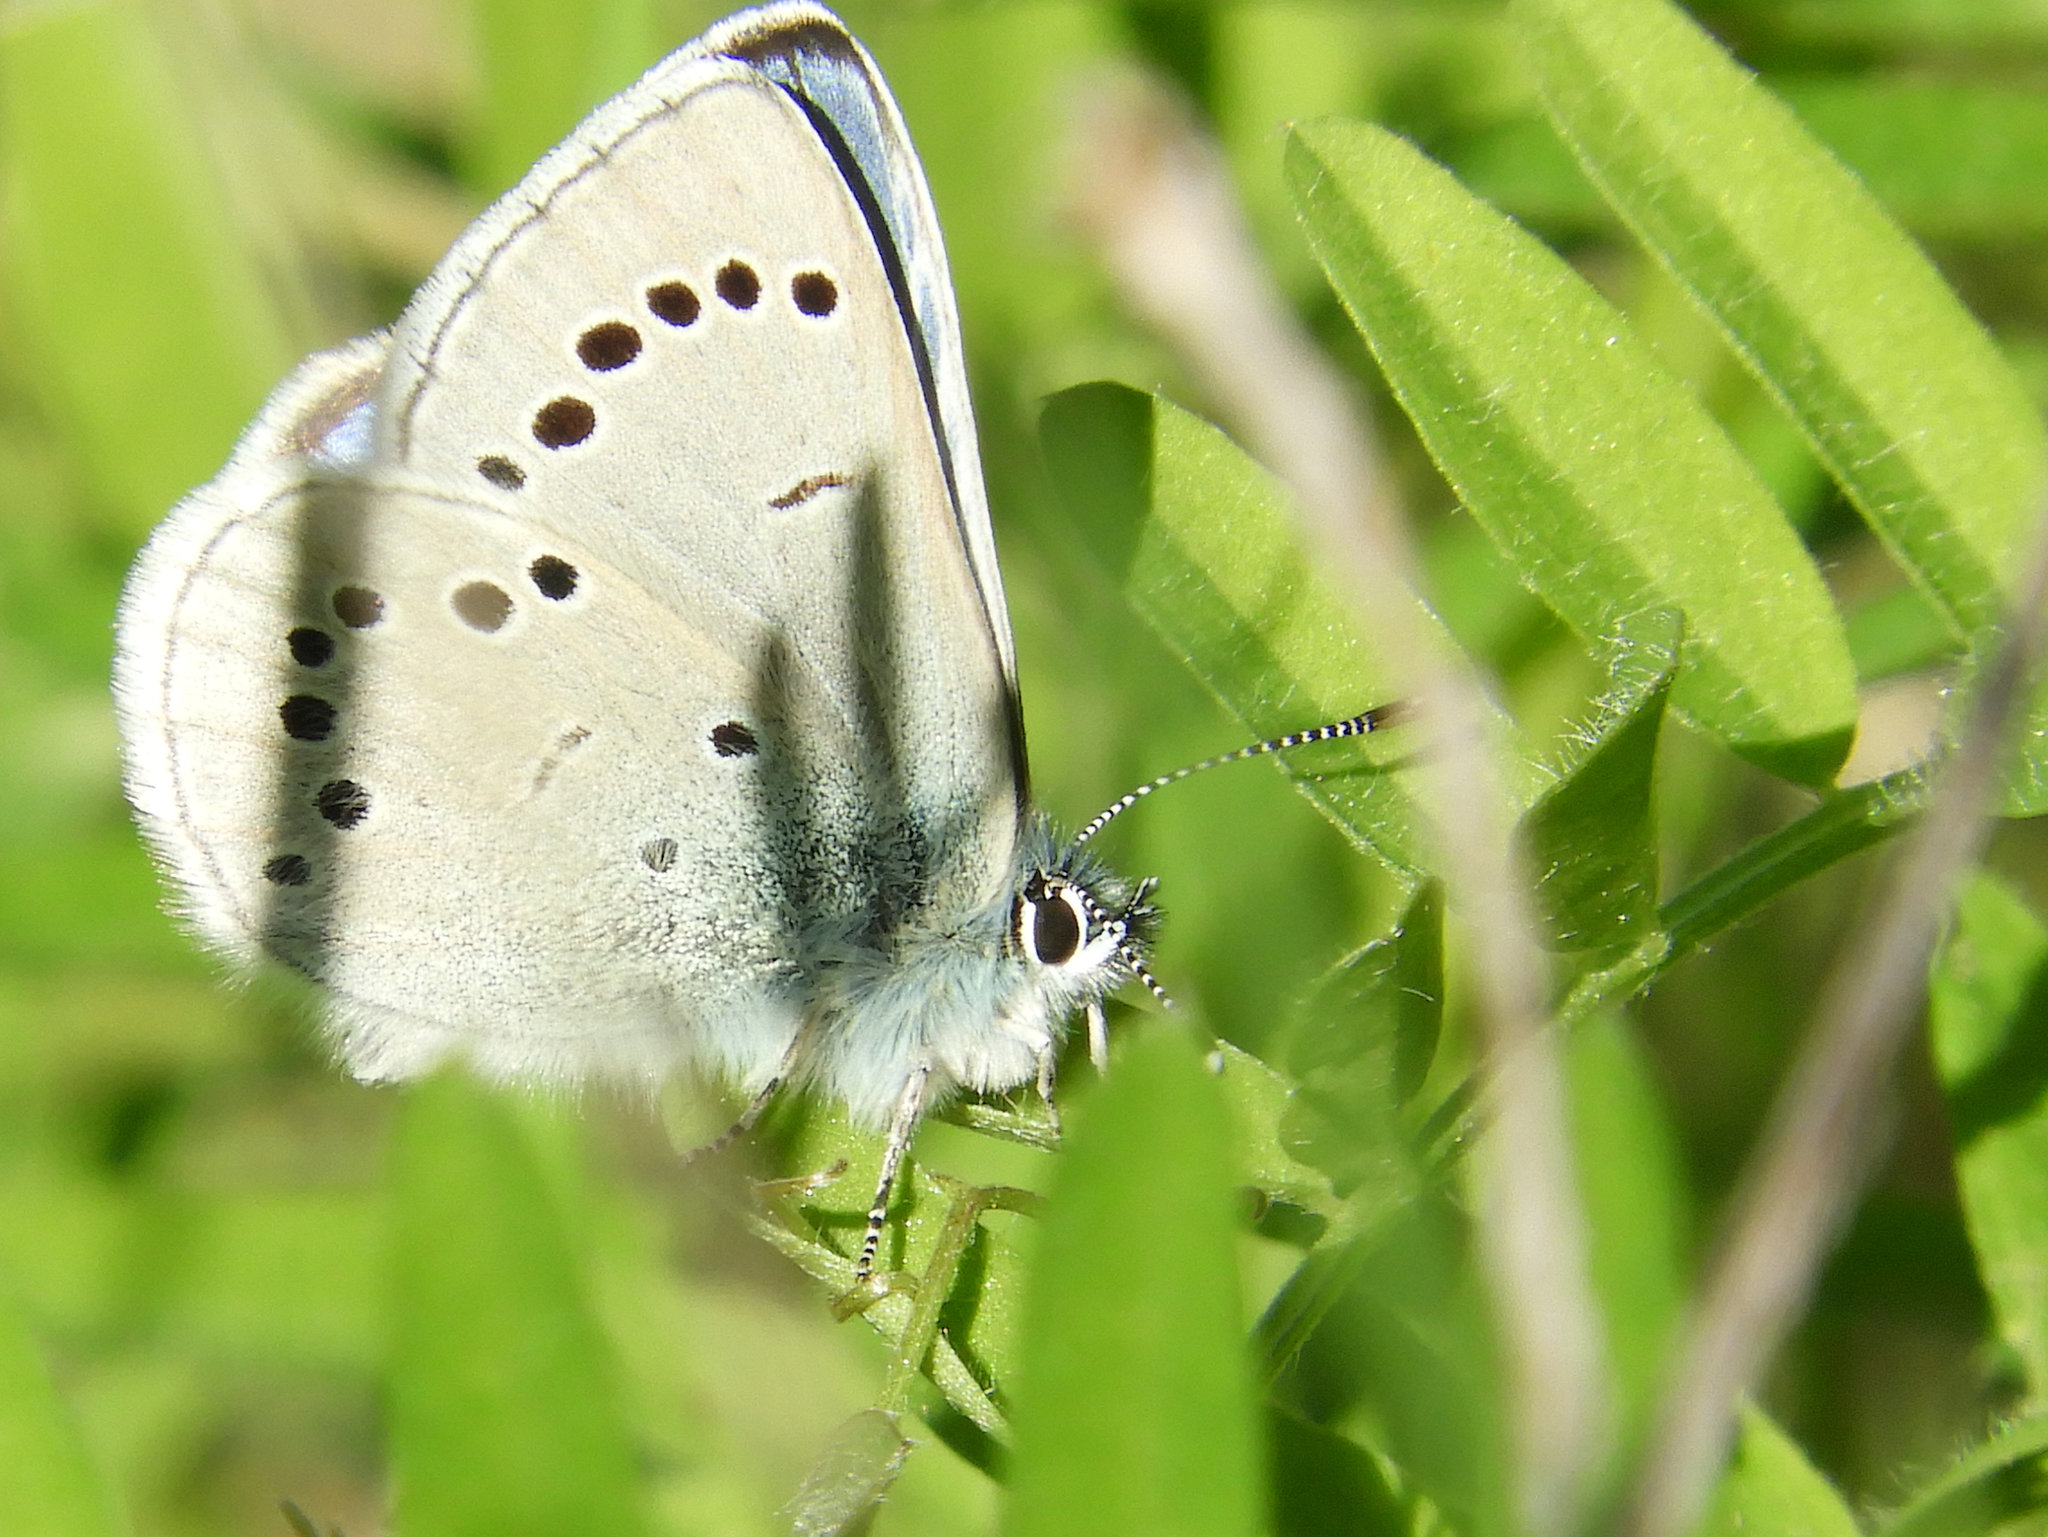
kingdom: Animalia
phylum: Arthropoda
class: Insecta
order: Lepidoptera
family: Lycaenidae
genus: Glaucopsyche
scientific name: Glaucopsyche lygdamus
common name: Silvery blue
